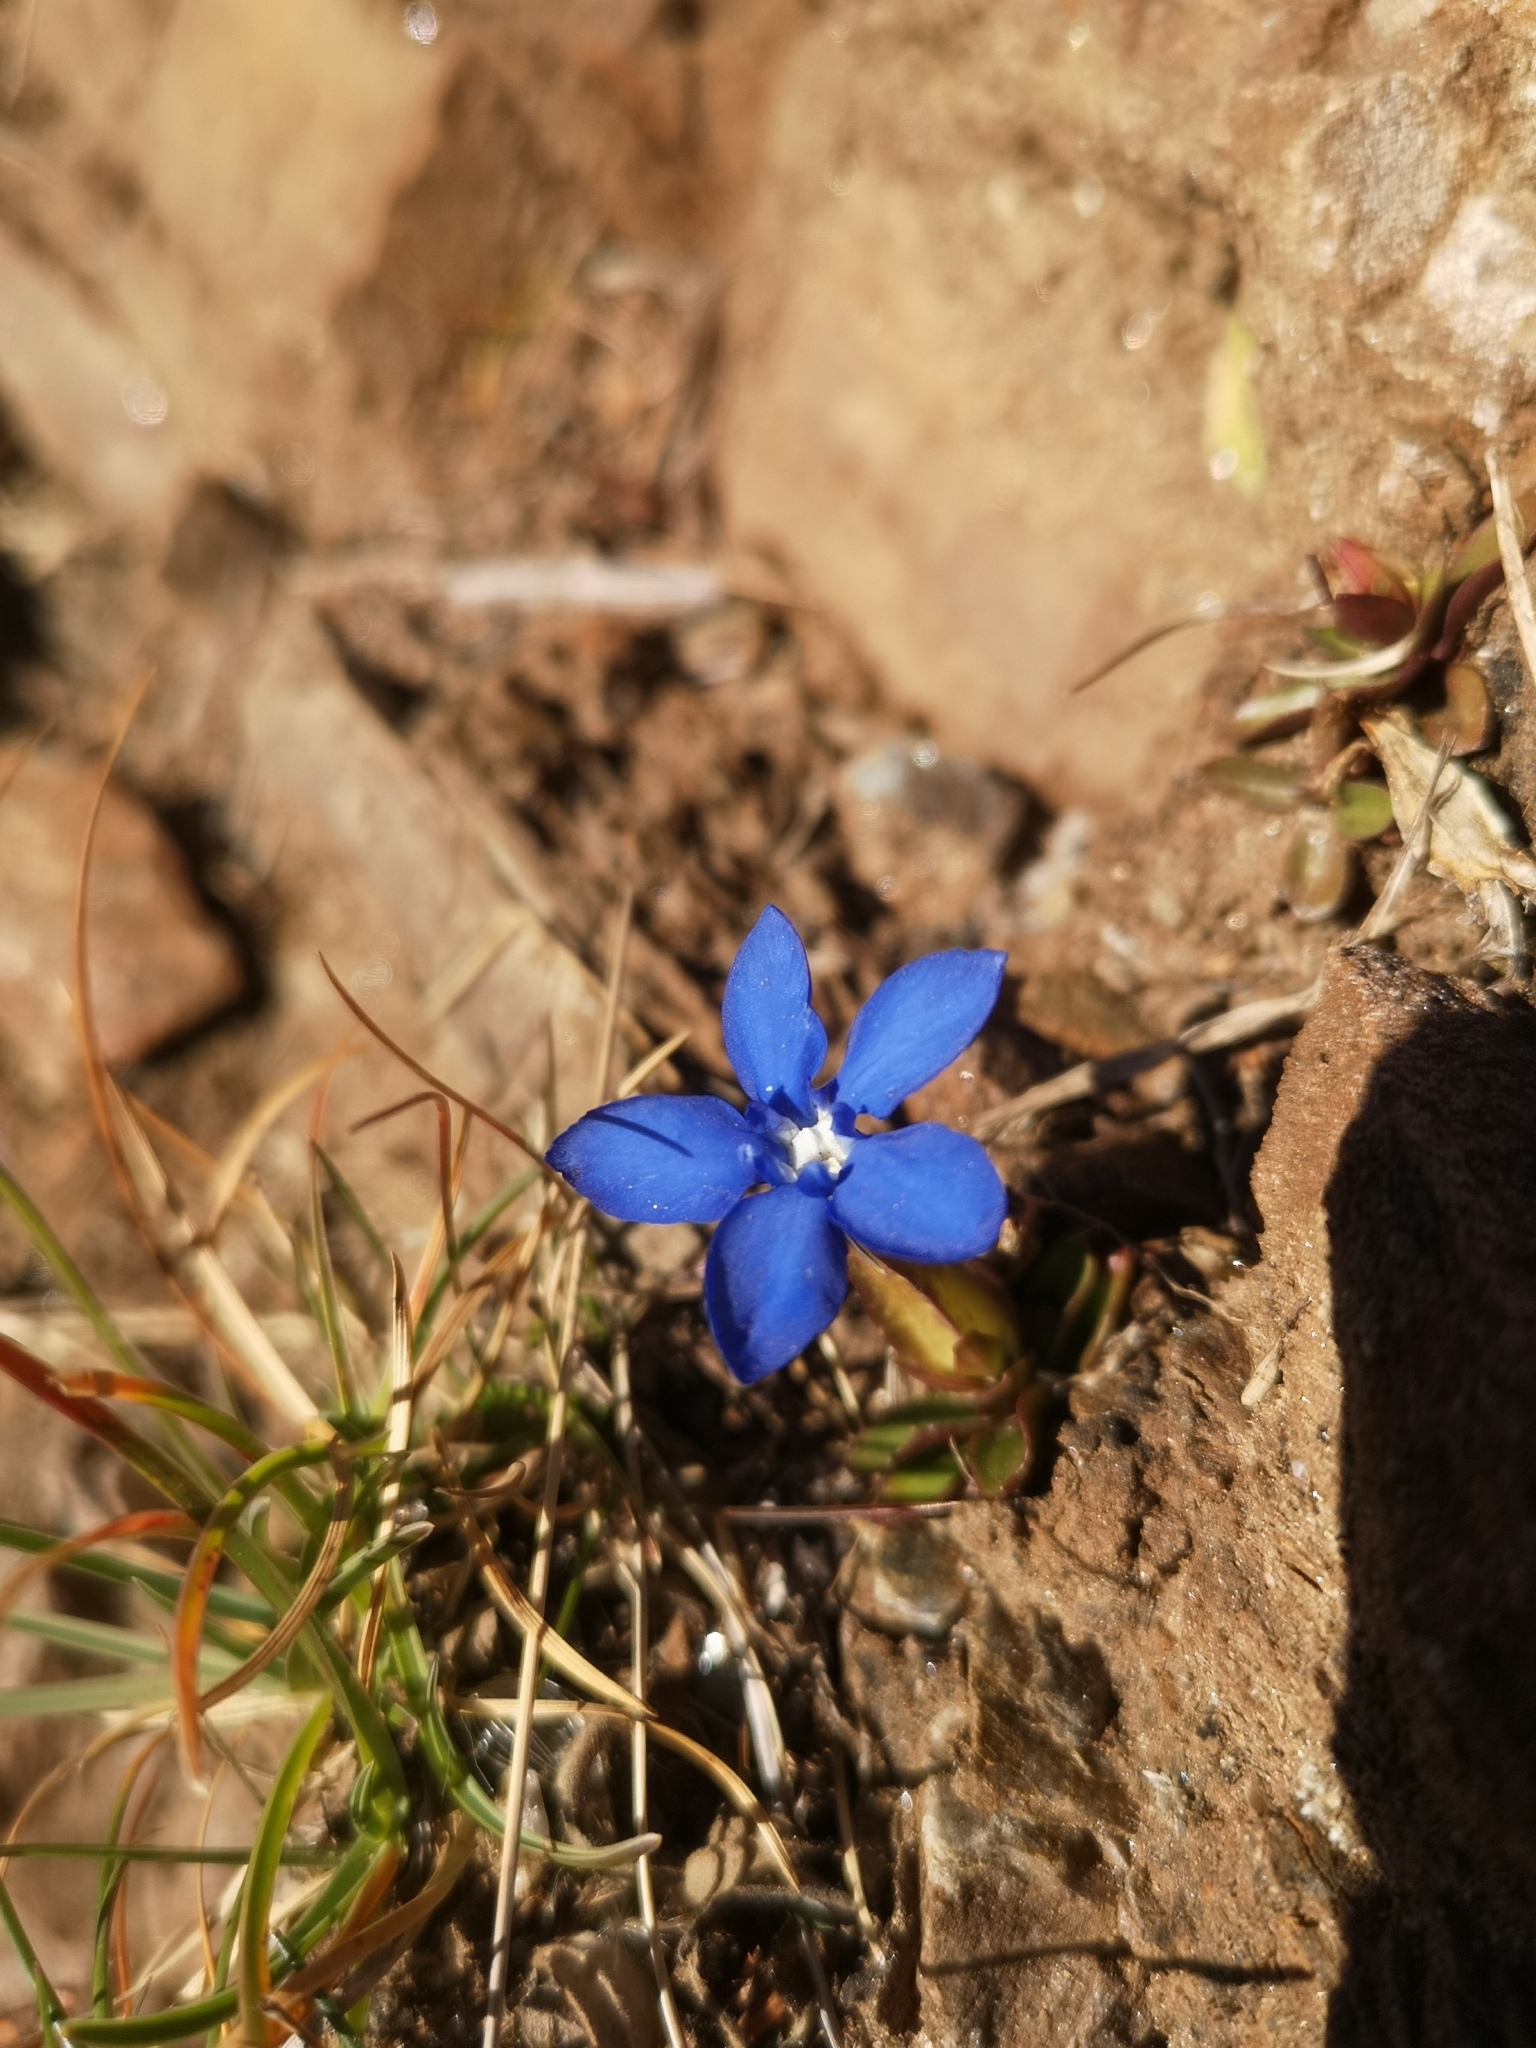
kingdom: Plantae
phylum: Tracheophyta
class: Magnoliopsida
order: Gentianales
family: Gentianaceae
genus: Gentiana
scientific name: Gentiana verna
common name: Spring gentian
